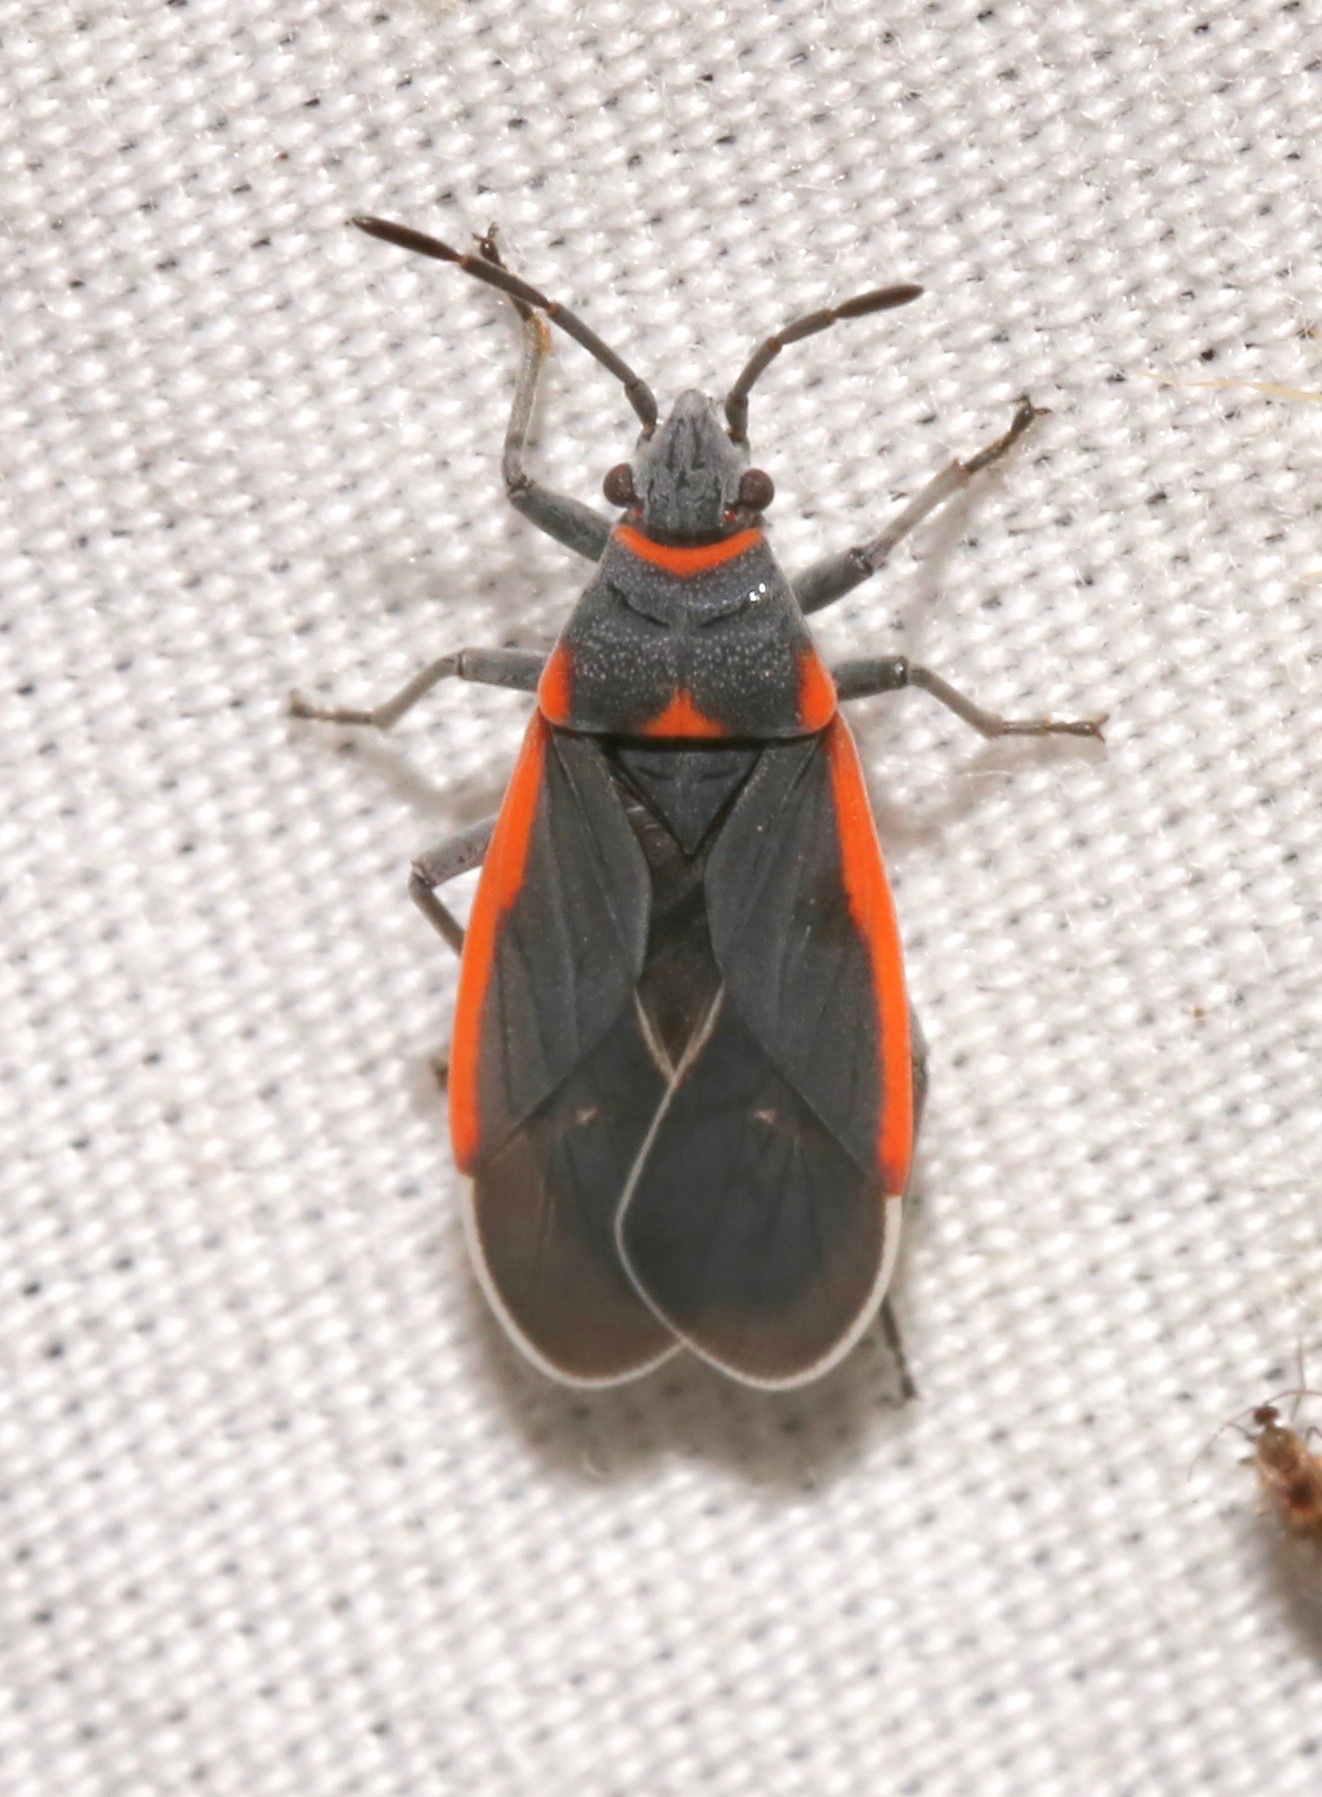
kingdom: Animalia
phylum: Arthropoda
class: Insecta
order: Hemiptera
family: Lygaeidae
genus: Melacoryphus
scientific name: Melacoryphus lateralis
